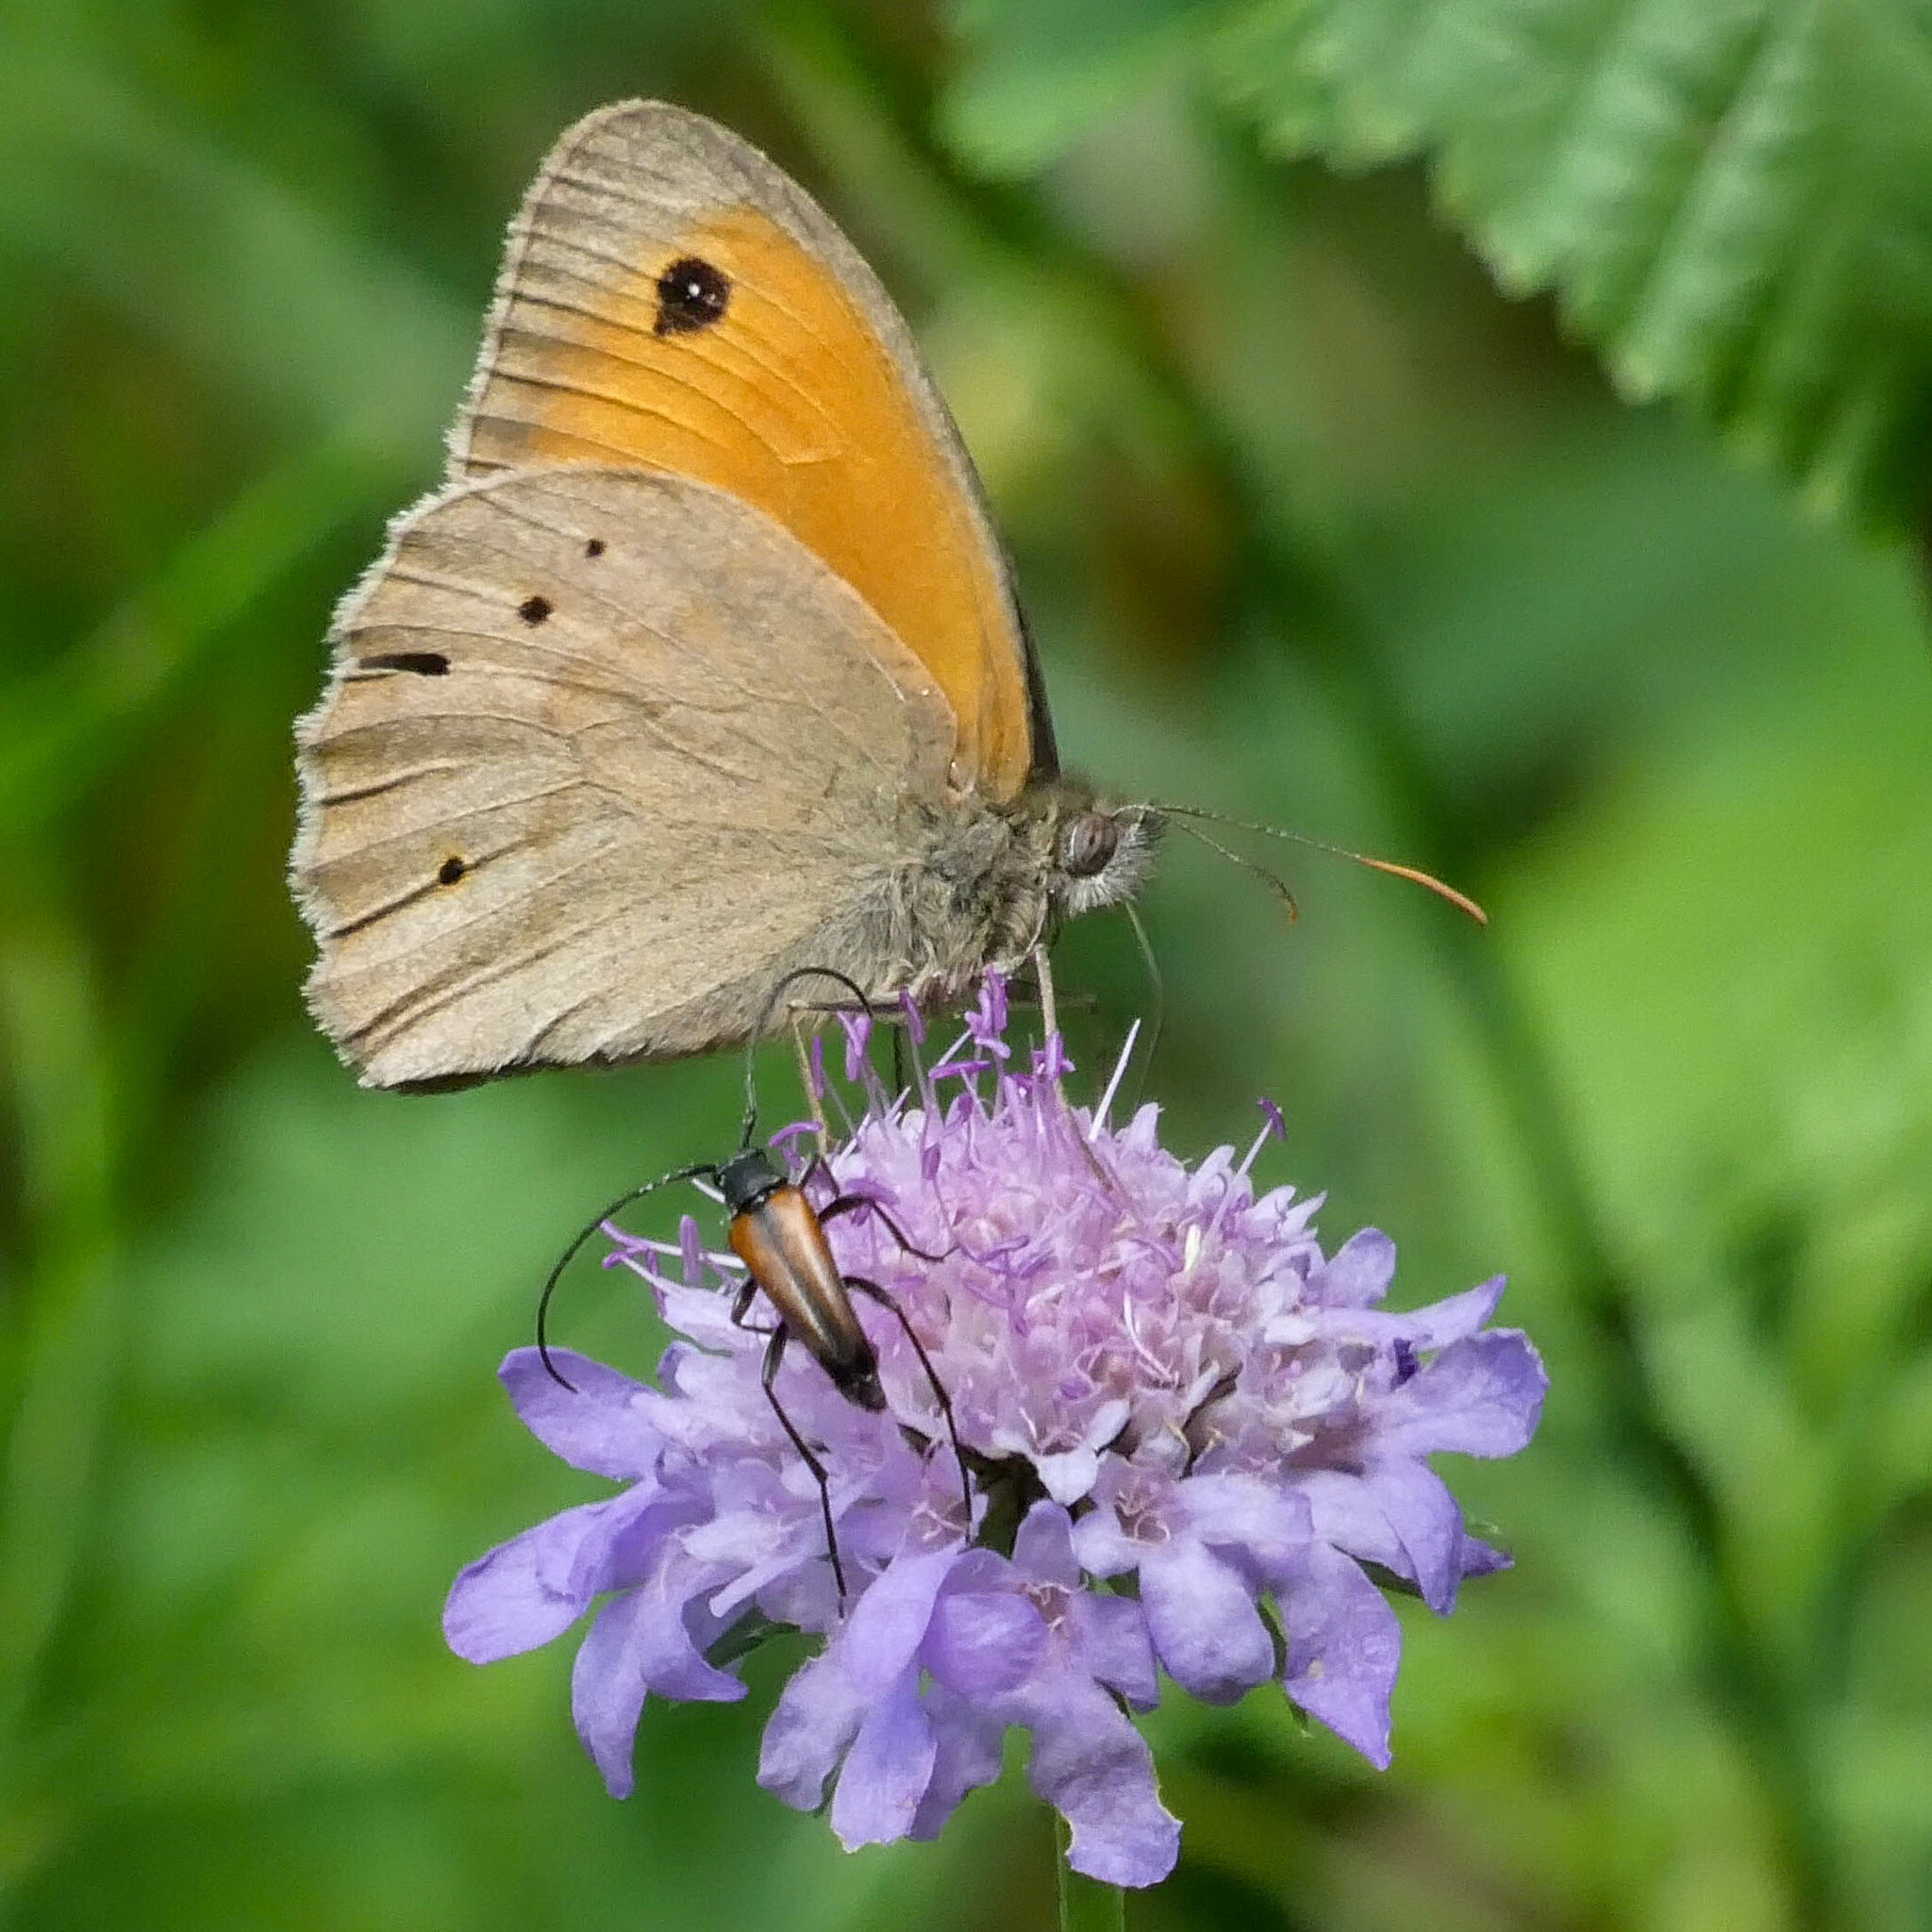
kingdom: Animalia
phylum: Arthropoda
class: Insecta
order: Lepidoptera
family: Nymphalidae
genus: Maniola
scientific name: Maniola jurtina
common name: Meadow brown
